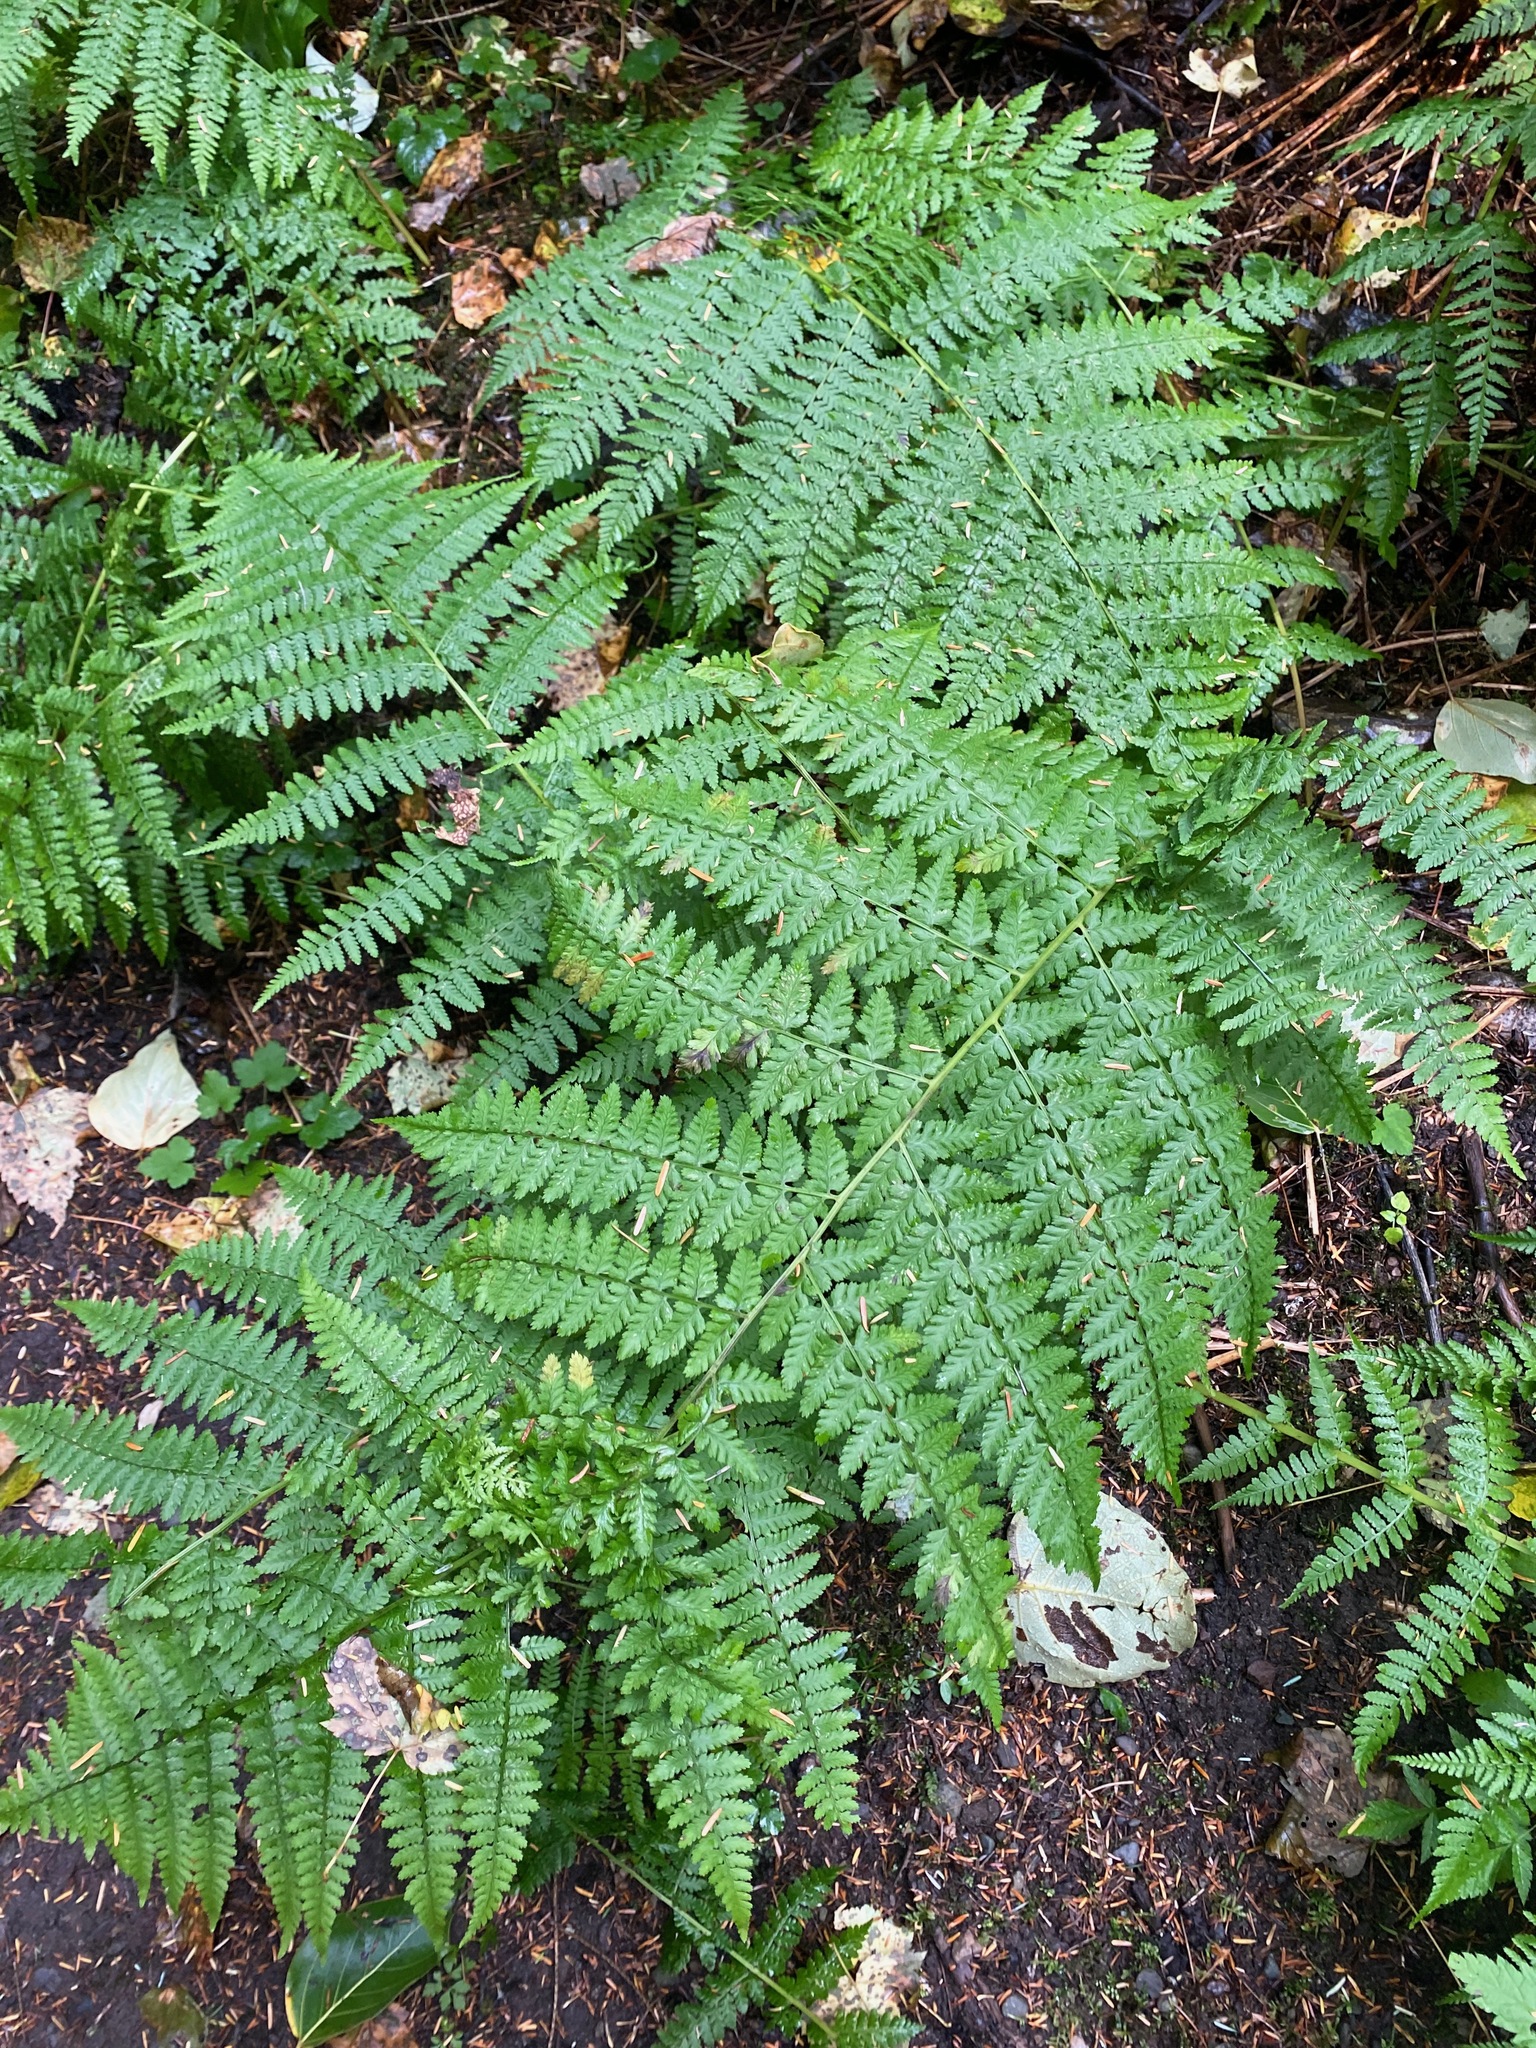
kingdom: Plantae
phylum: Tracheophyta
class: Polypodiopsida
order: Polypodiales
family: Athyriaceae
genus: Athyrium
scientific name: Athyrium filix-femina
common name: Lady fern
